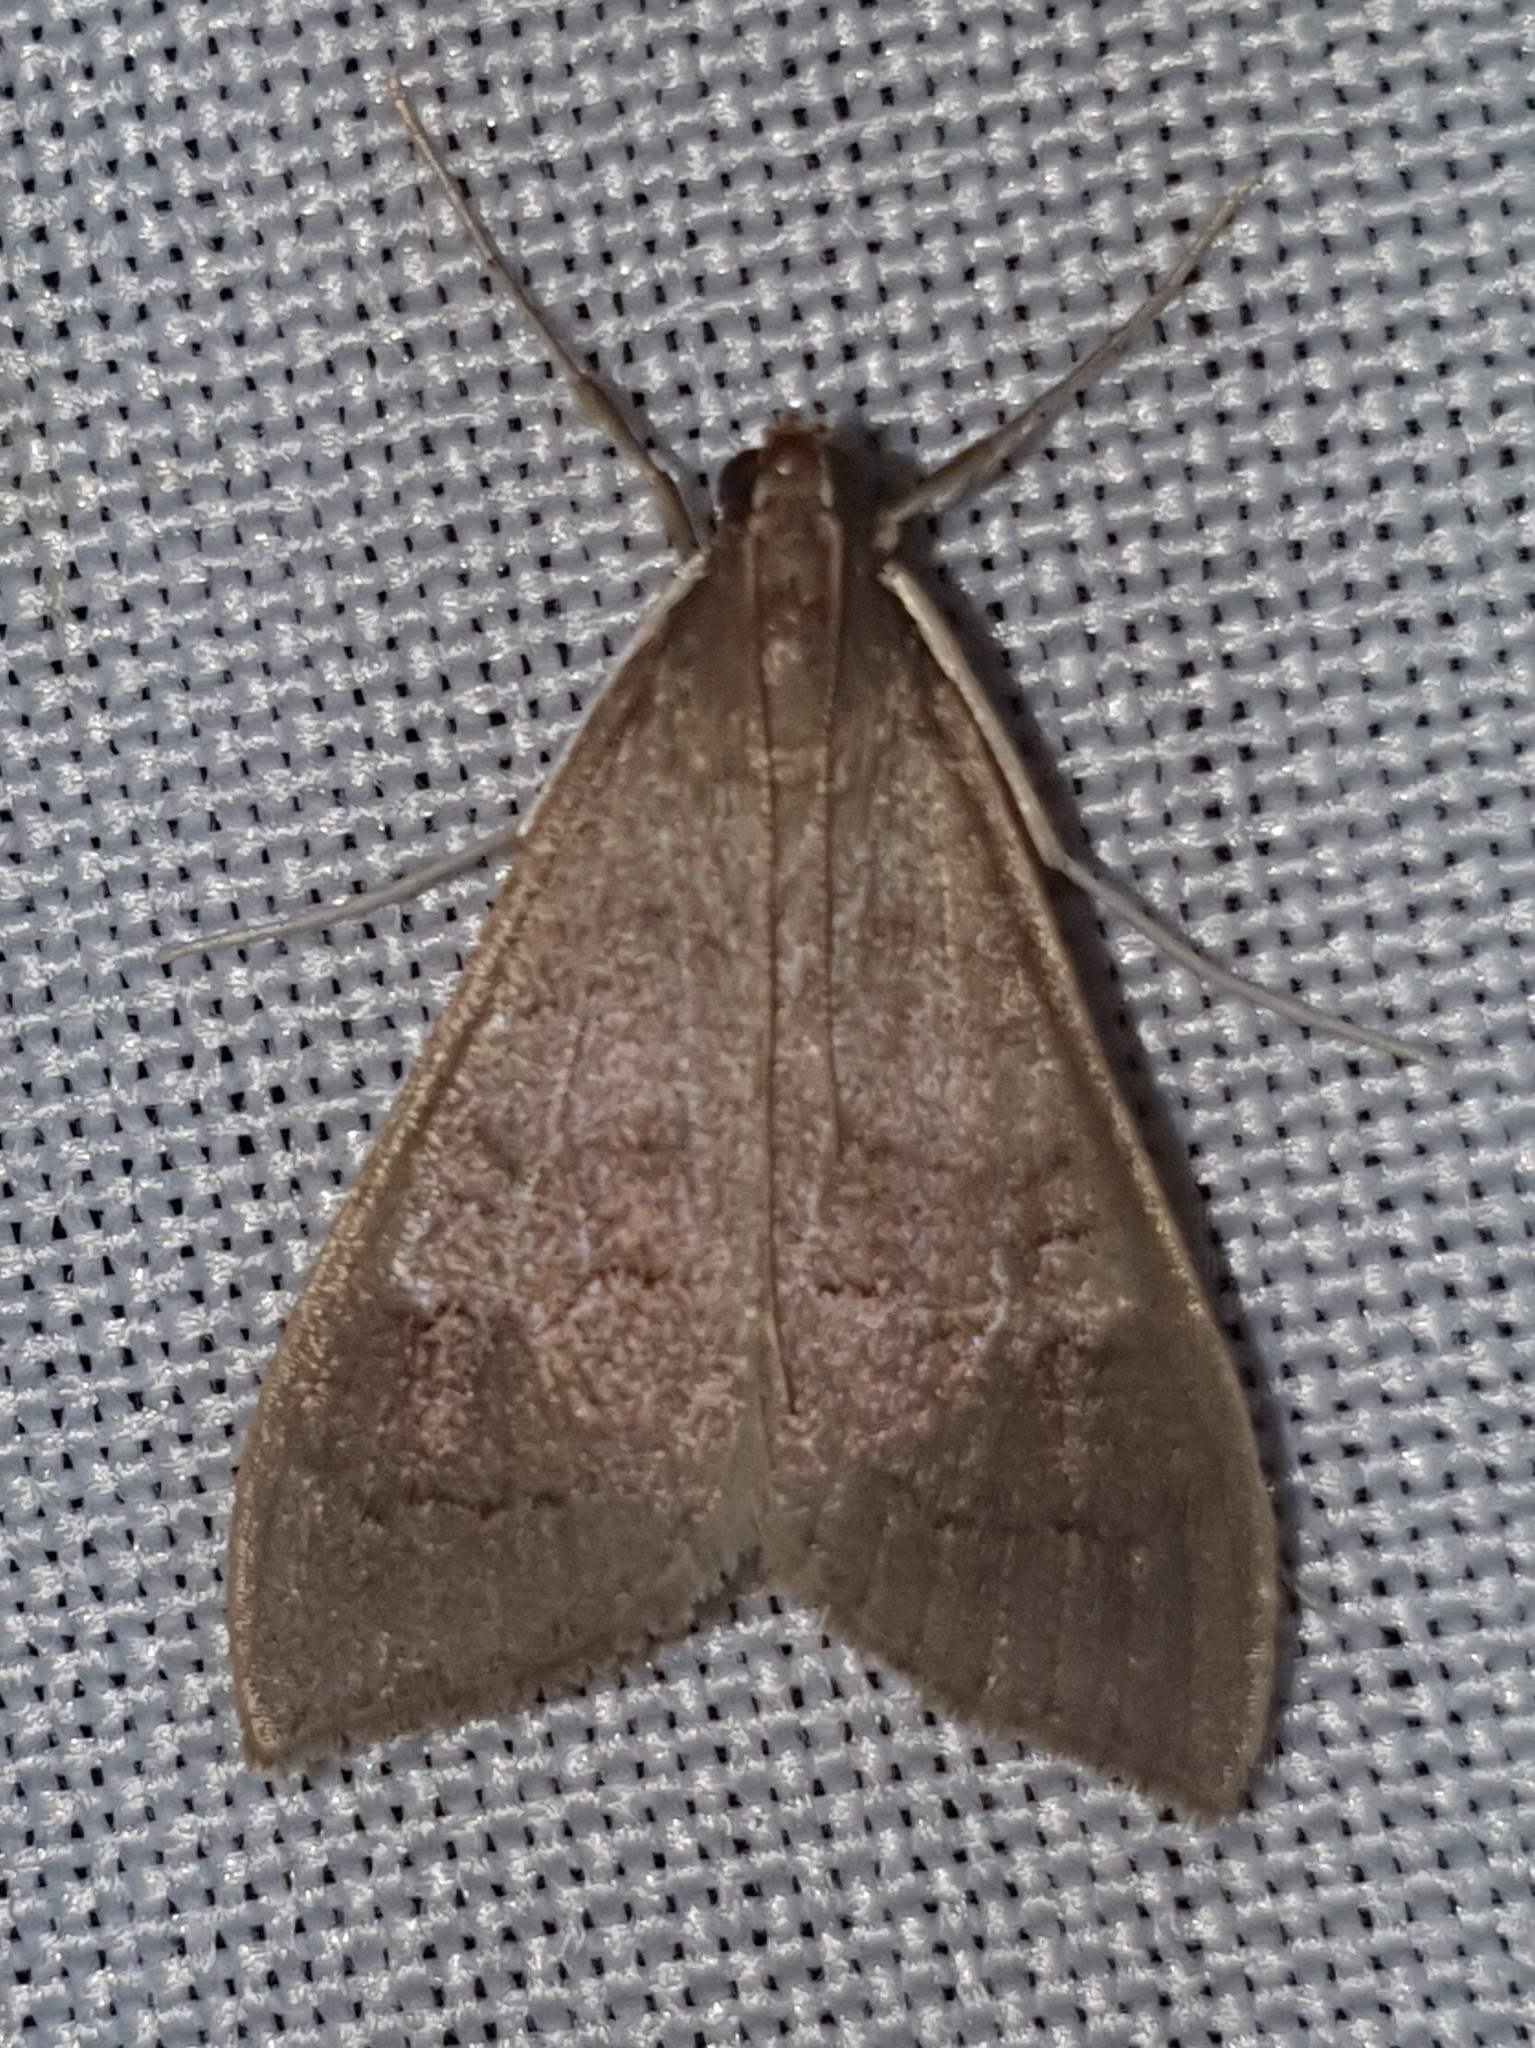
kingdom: Animalia
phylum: Arthropoda
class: Insecta
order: Lepidoptera
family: Crambidae
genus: Mecyna
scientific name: Mecyna asinalis
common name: Coastal pearl
